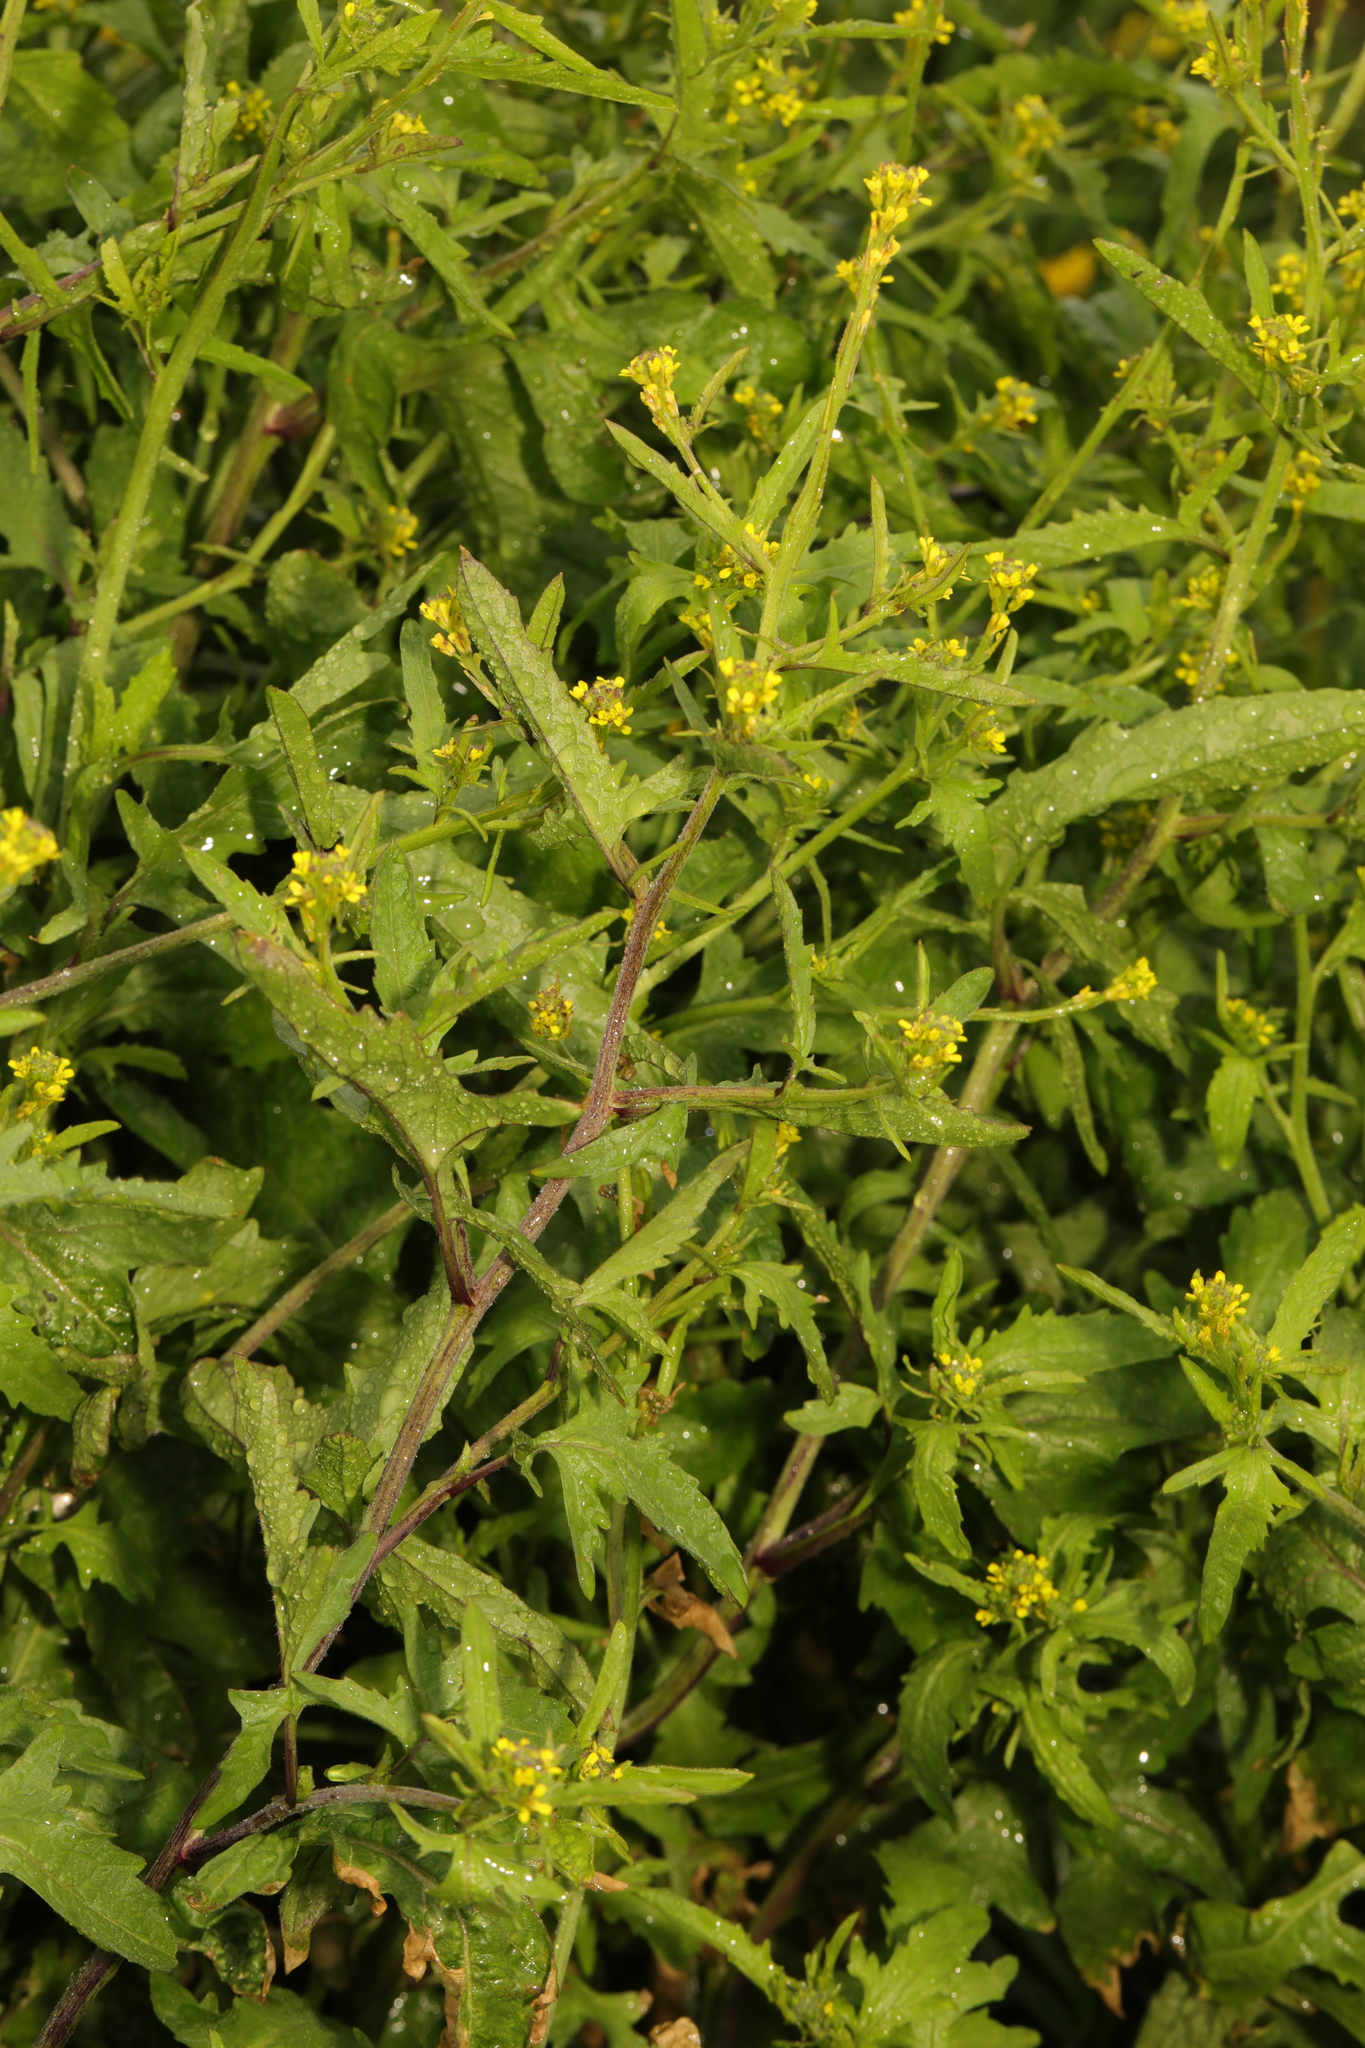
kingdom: Plantae
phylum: Tracheophyta
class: Magnoliopsida
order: Brassicales
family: Brassicaceae
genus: Sisymbrium
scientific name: Sisymbrium officinale
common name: Hedge mustard
